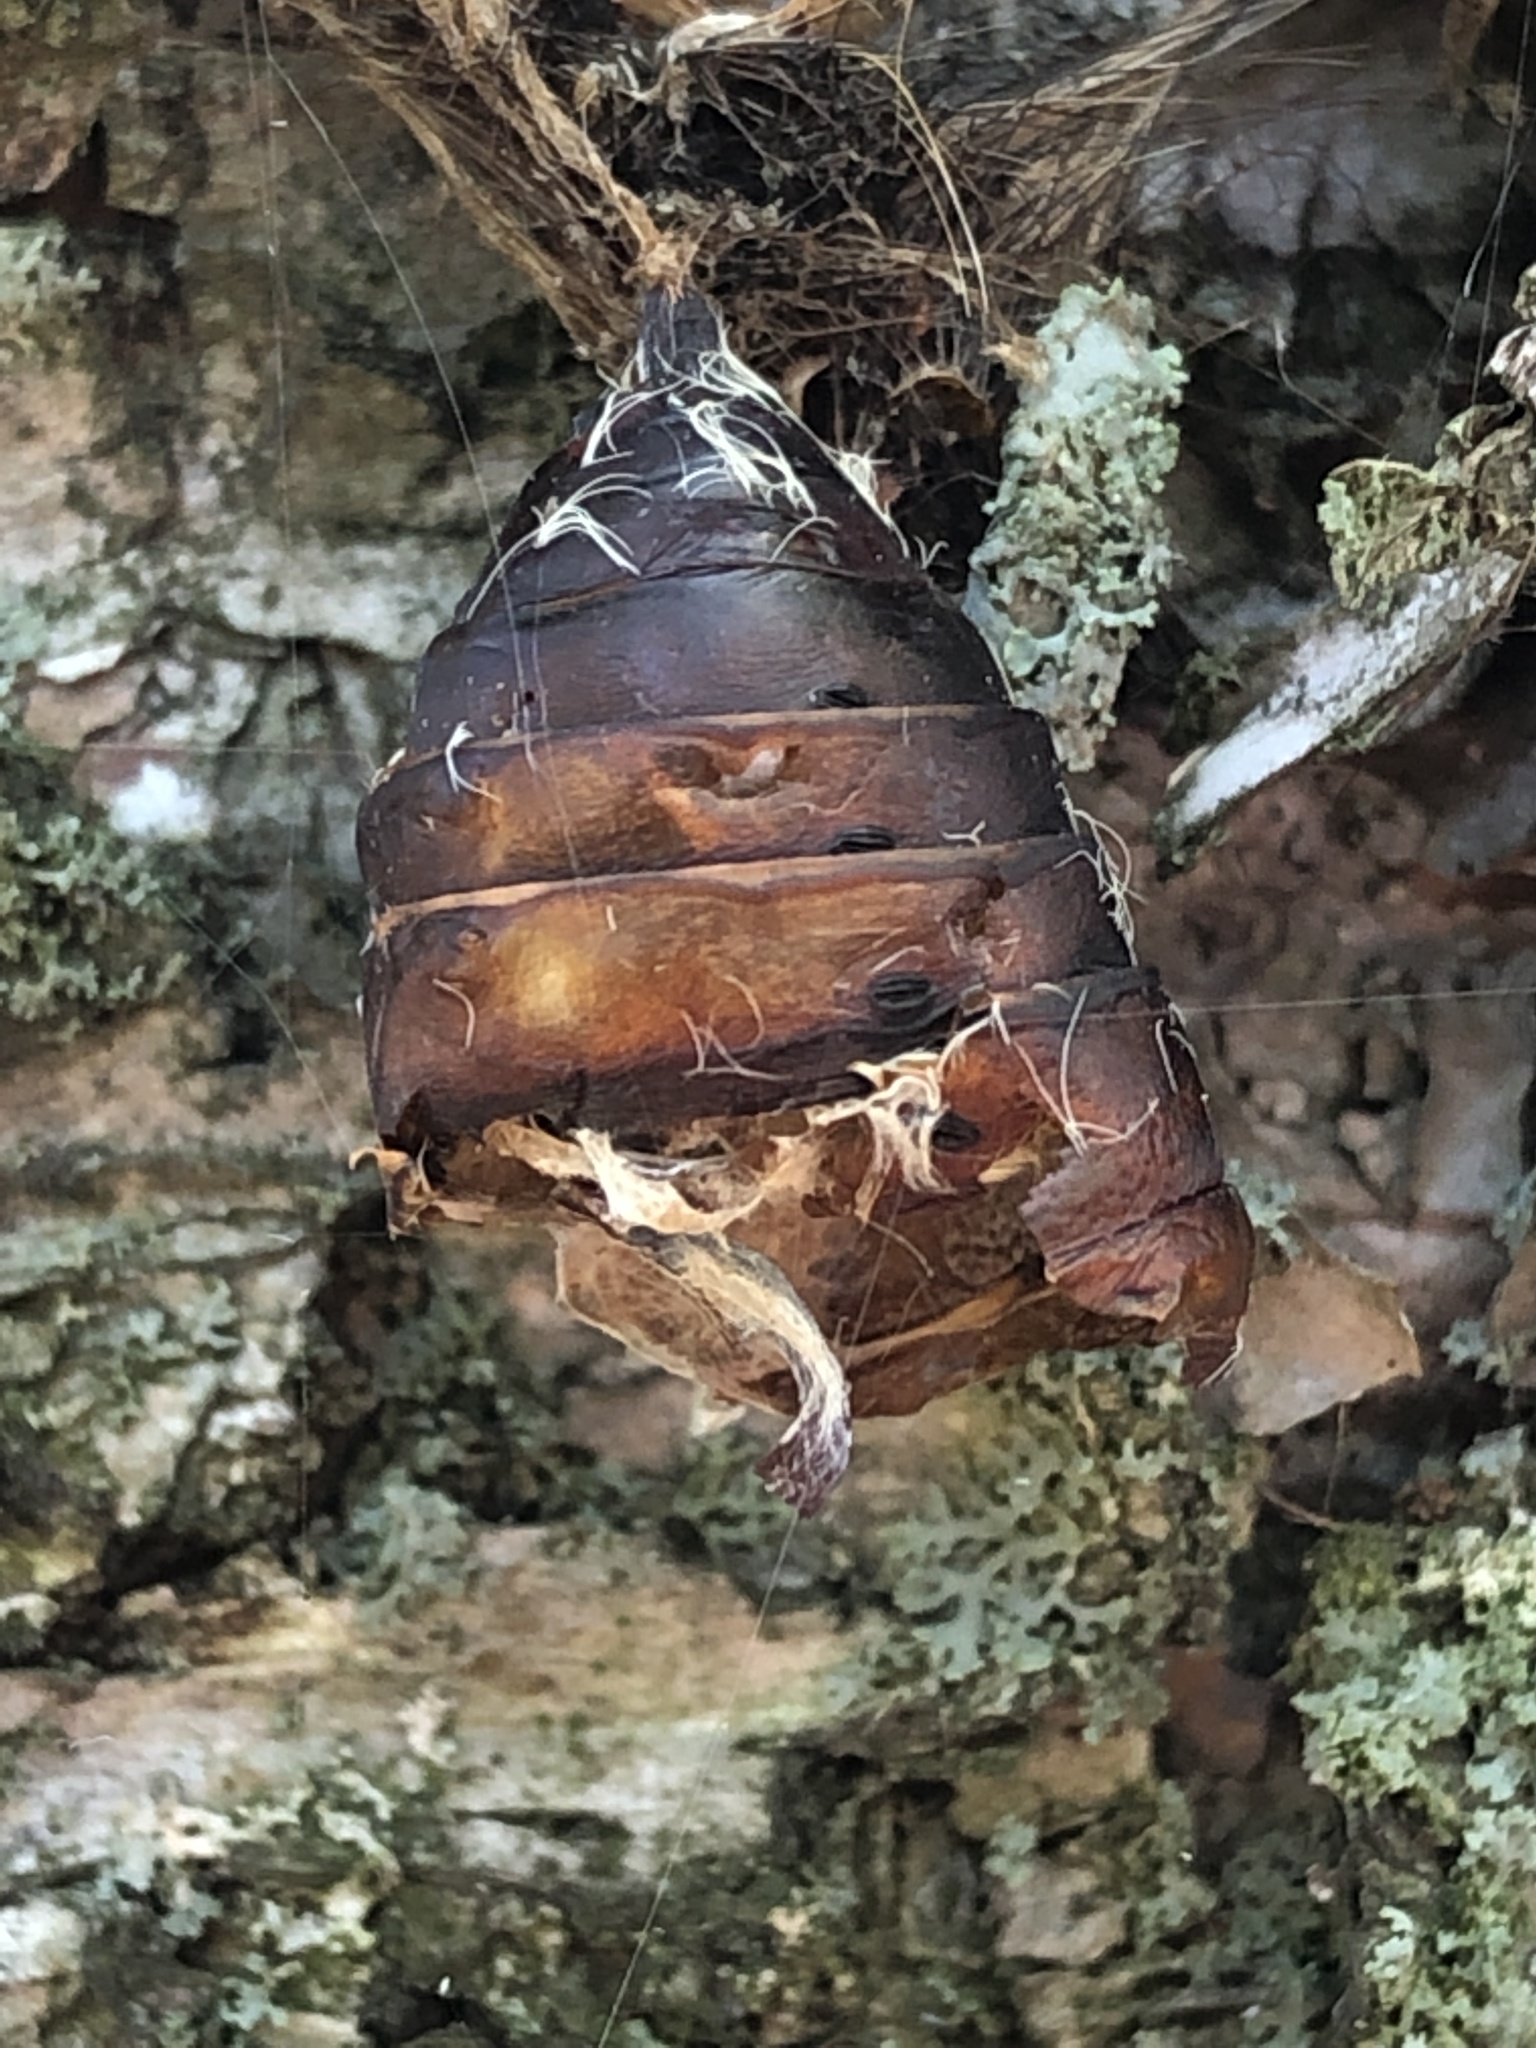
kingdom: Animalia
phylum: Arthropoda
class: Insecta
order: Lepidoptera
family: Erebidae
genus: Lymantria
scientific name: Lymantria dispar
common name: Gypsy moth
